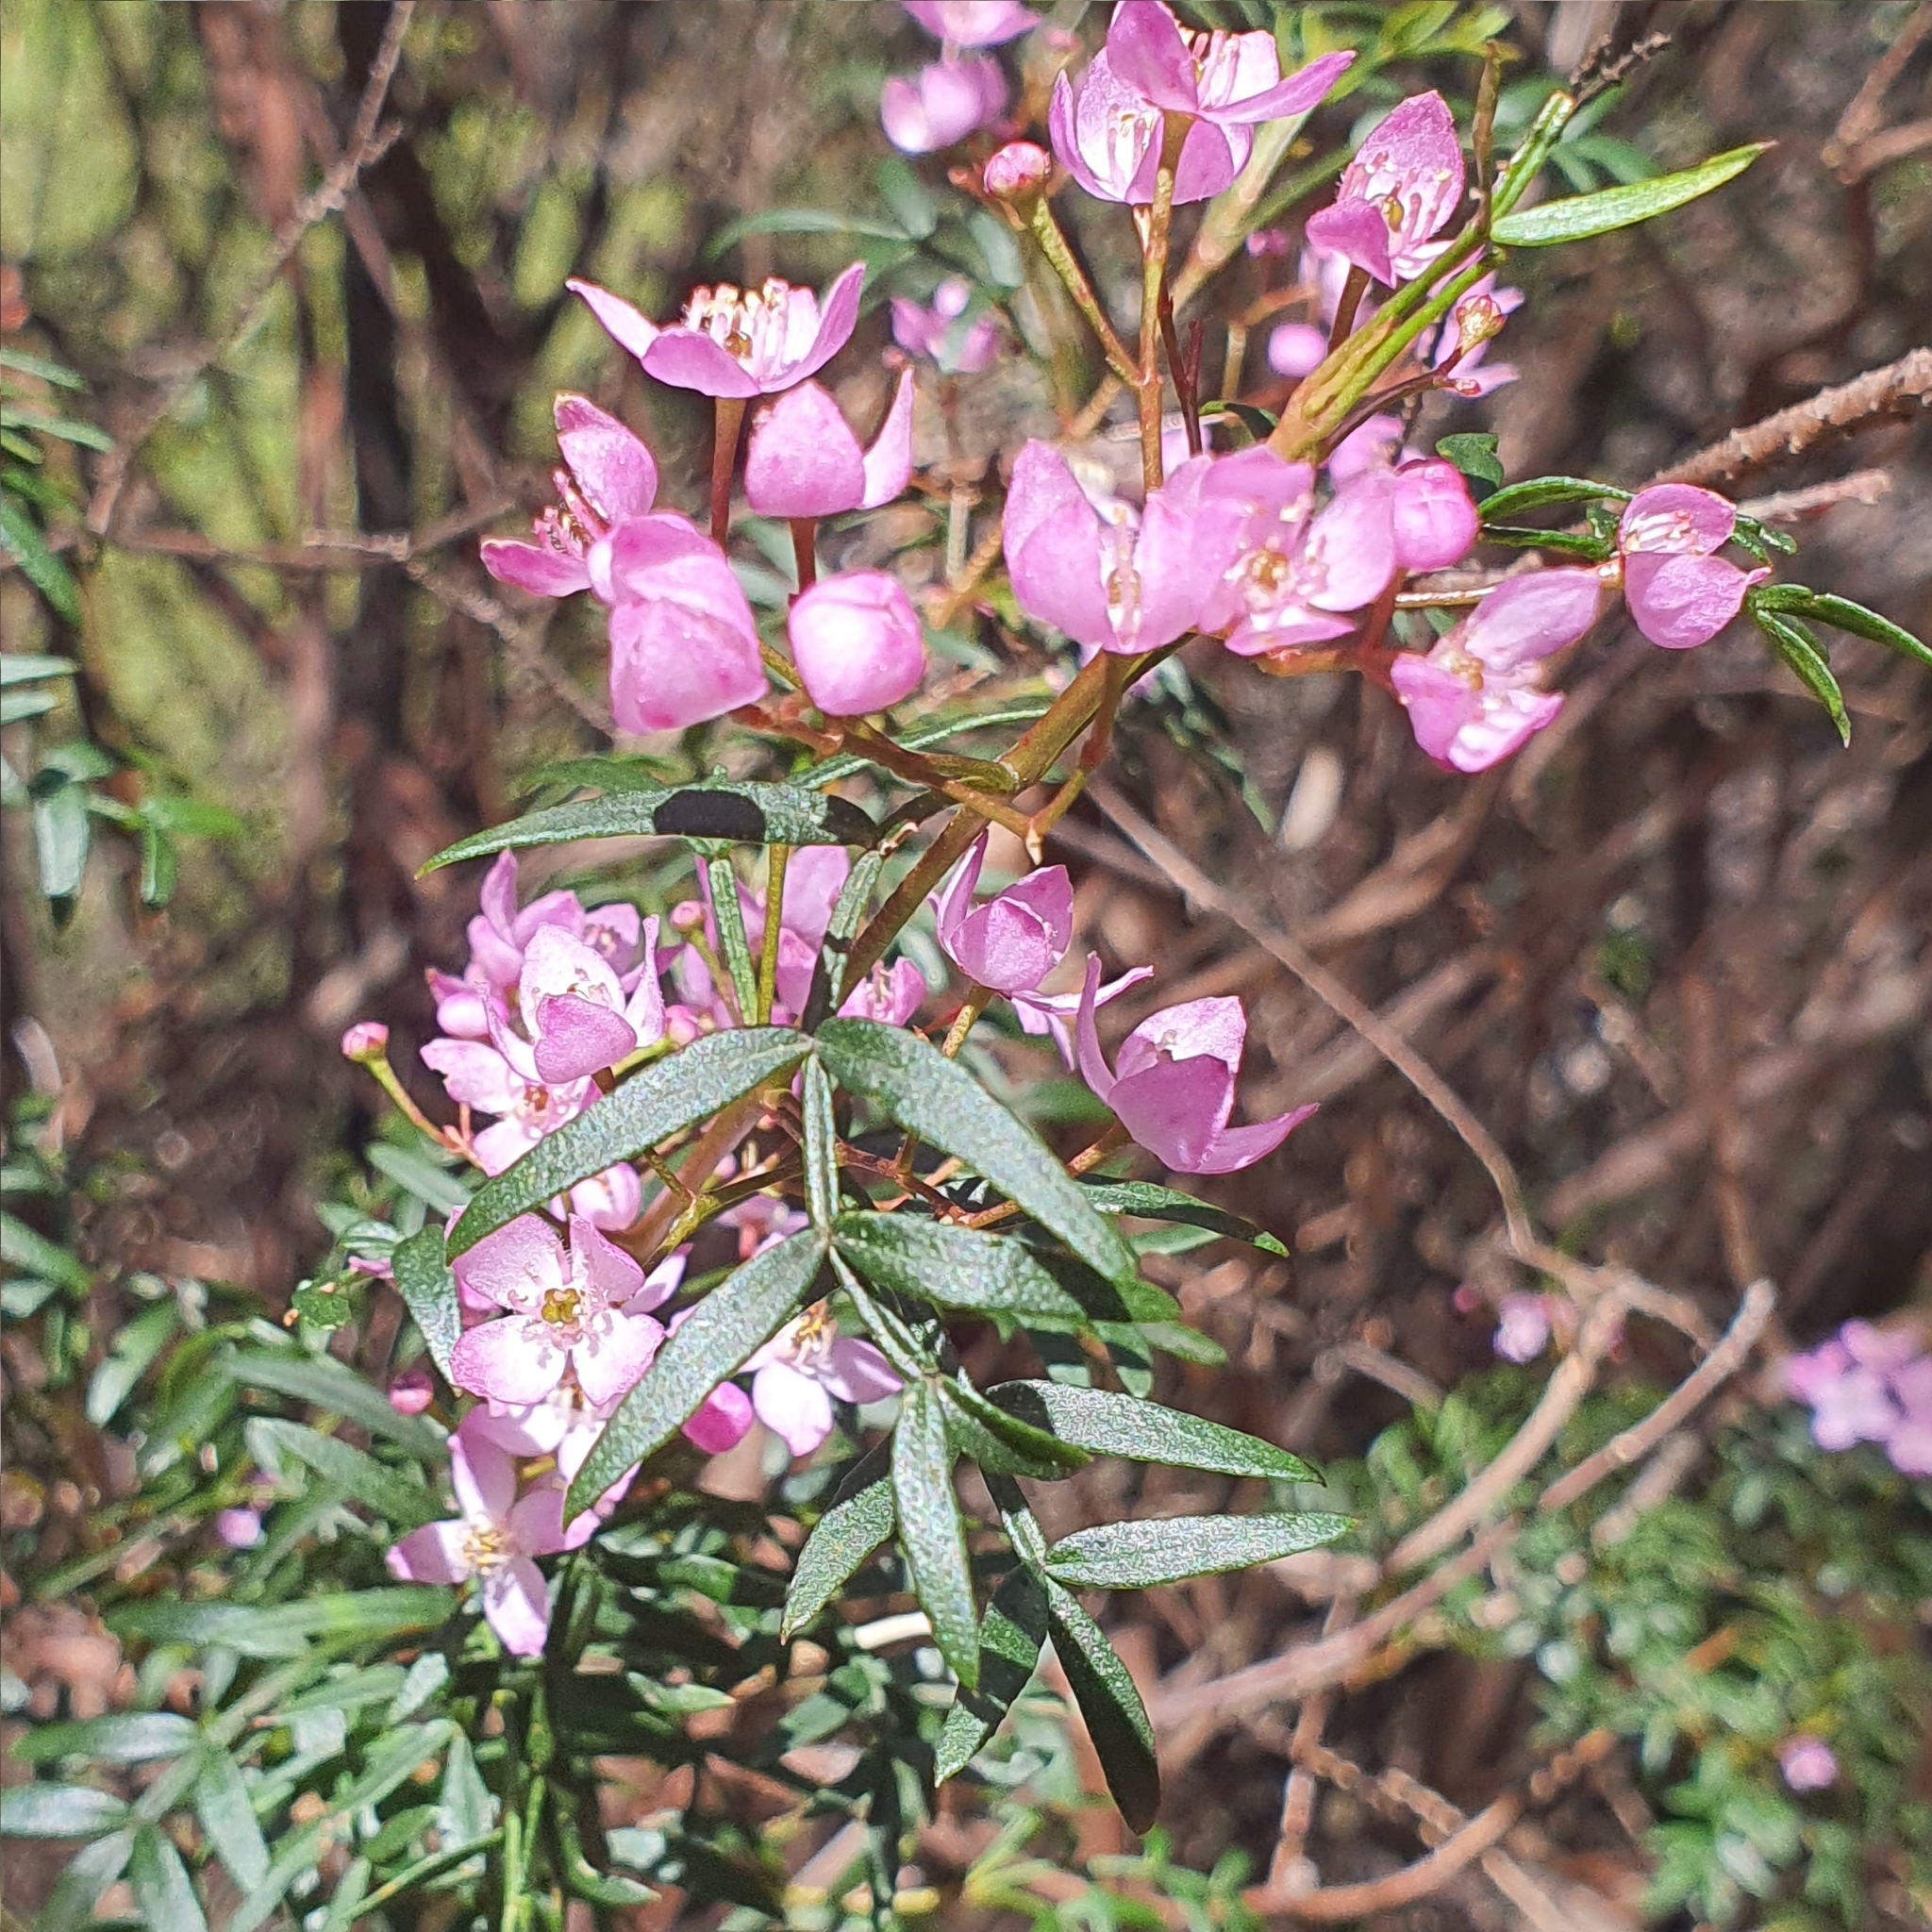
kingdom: Plantae
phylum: Tracheophyta
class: Magnoliopsida
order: Sapindales
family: Rutaceae
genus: Boronia
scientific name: Boronia pinnata
